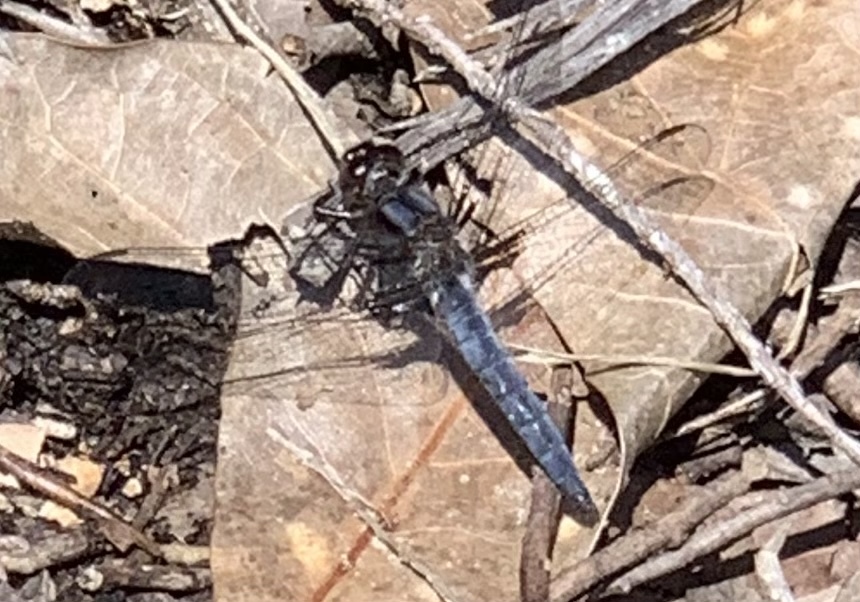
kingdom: Animalia
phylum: Arthropoda
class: Insecta
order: Odonata
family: Libellulidae
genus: Ladona
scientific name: Ladona deplanata
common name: Blue corporal
